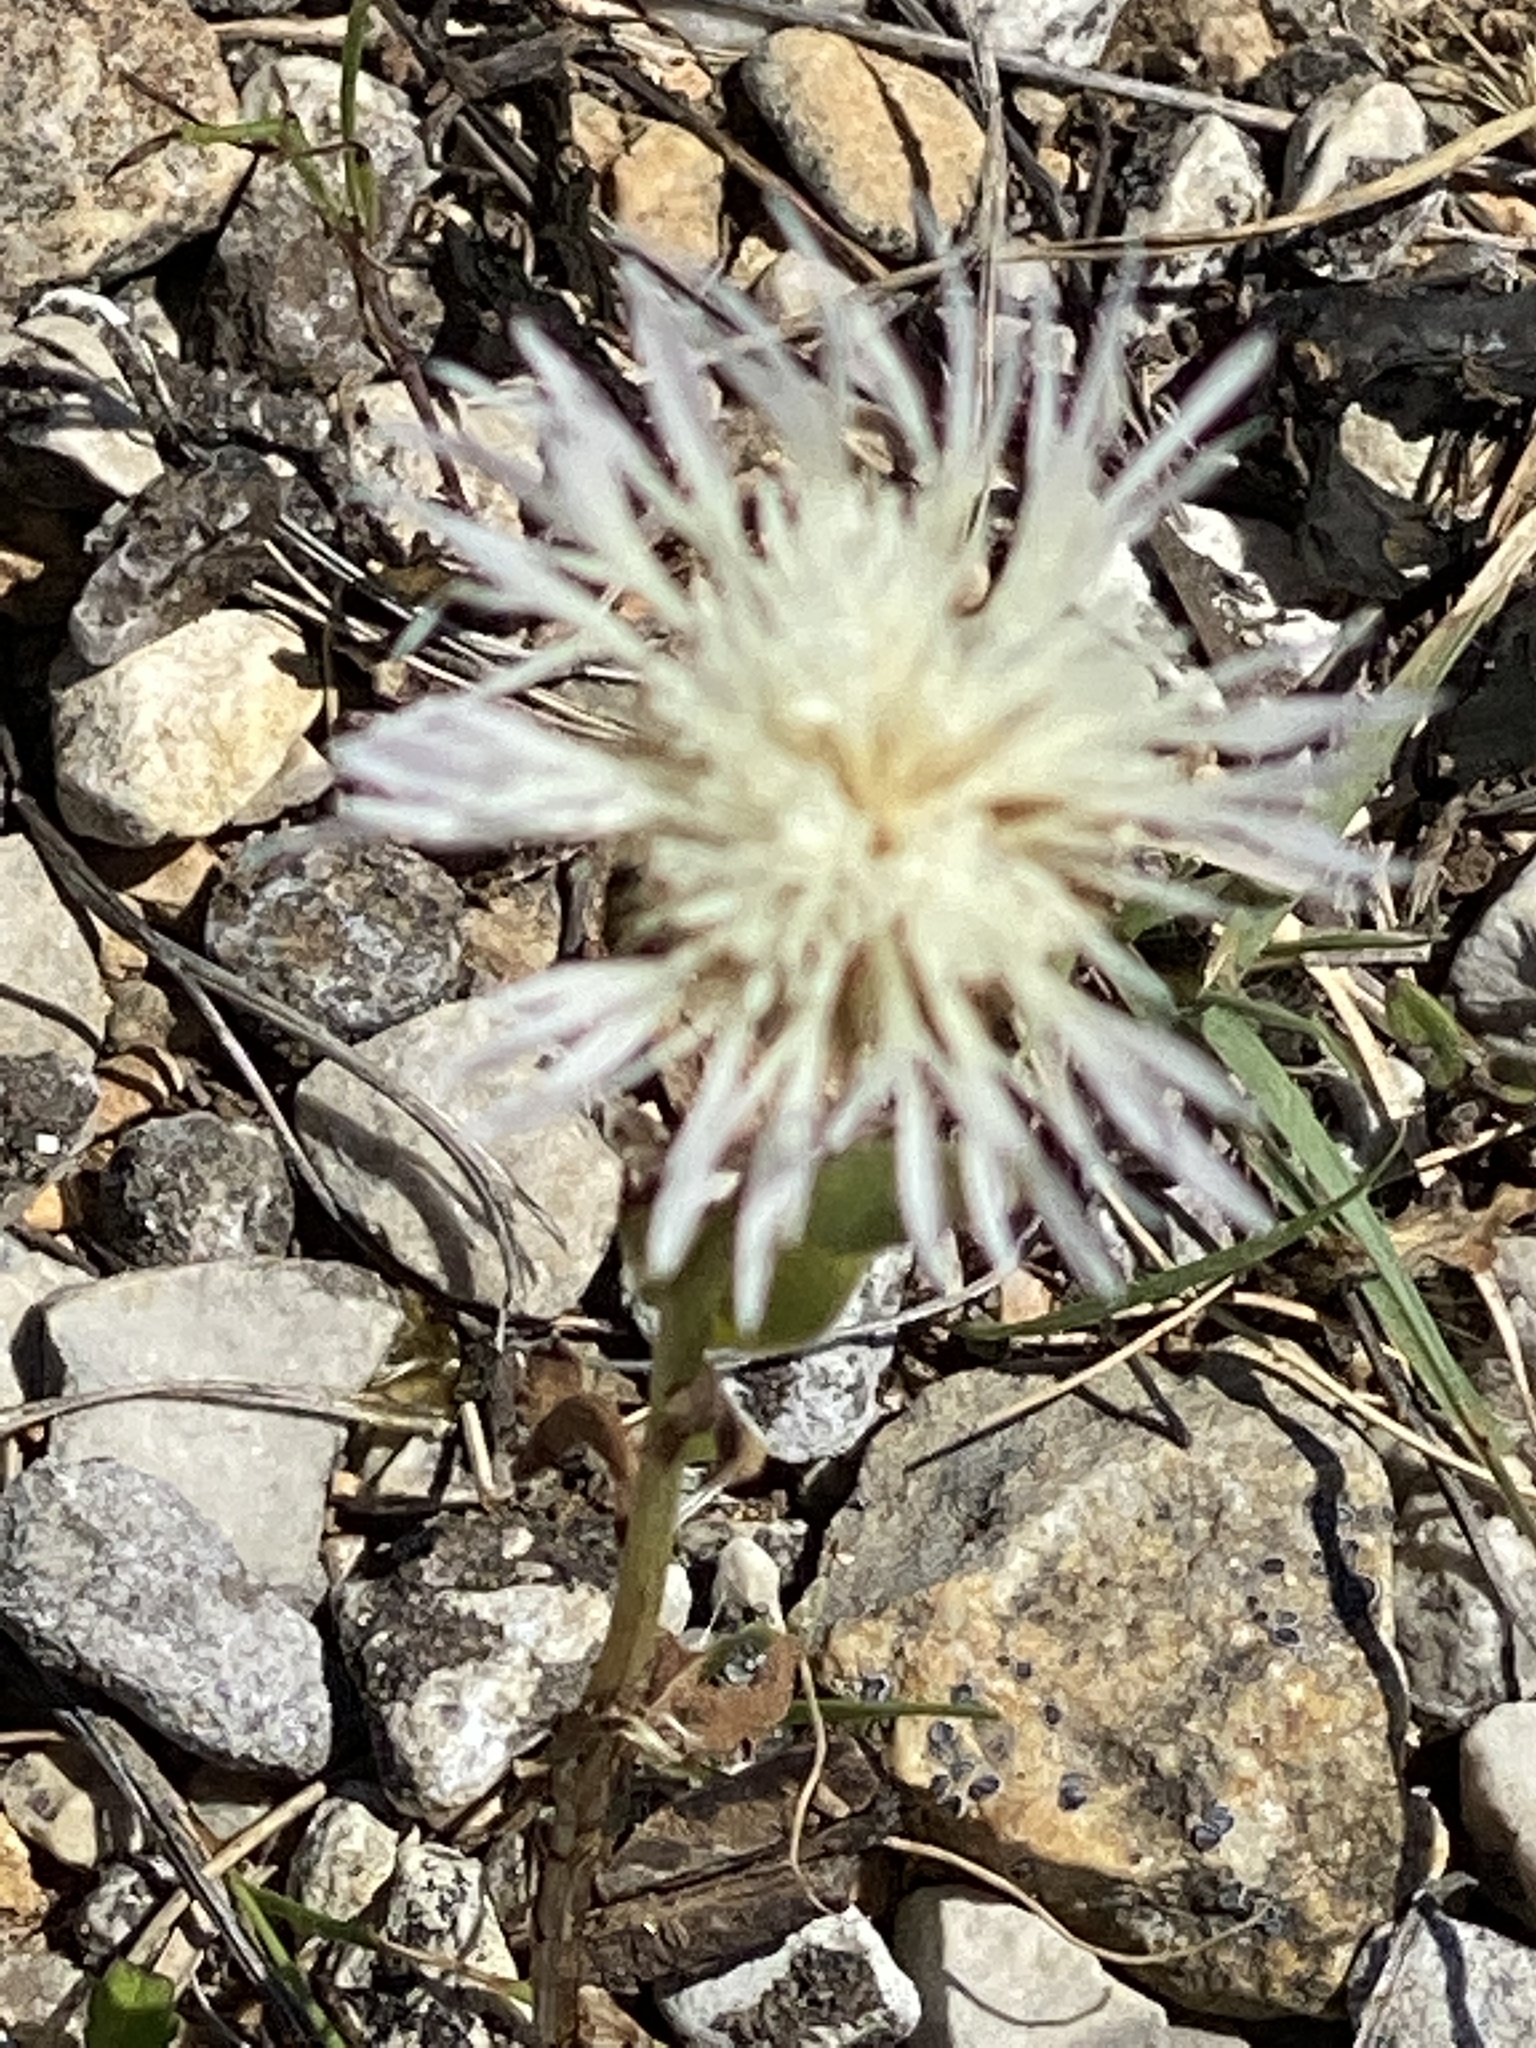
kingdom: Plantae
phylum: Tracheophyta
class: Magnoliopsida
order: Asterales
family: Asteraceae
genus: Pinaropappus
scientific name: Pinaropappus roseus
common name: Rock-lettuce
